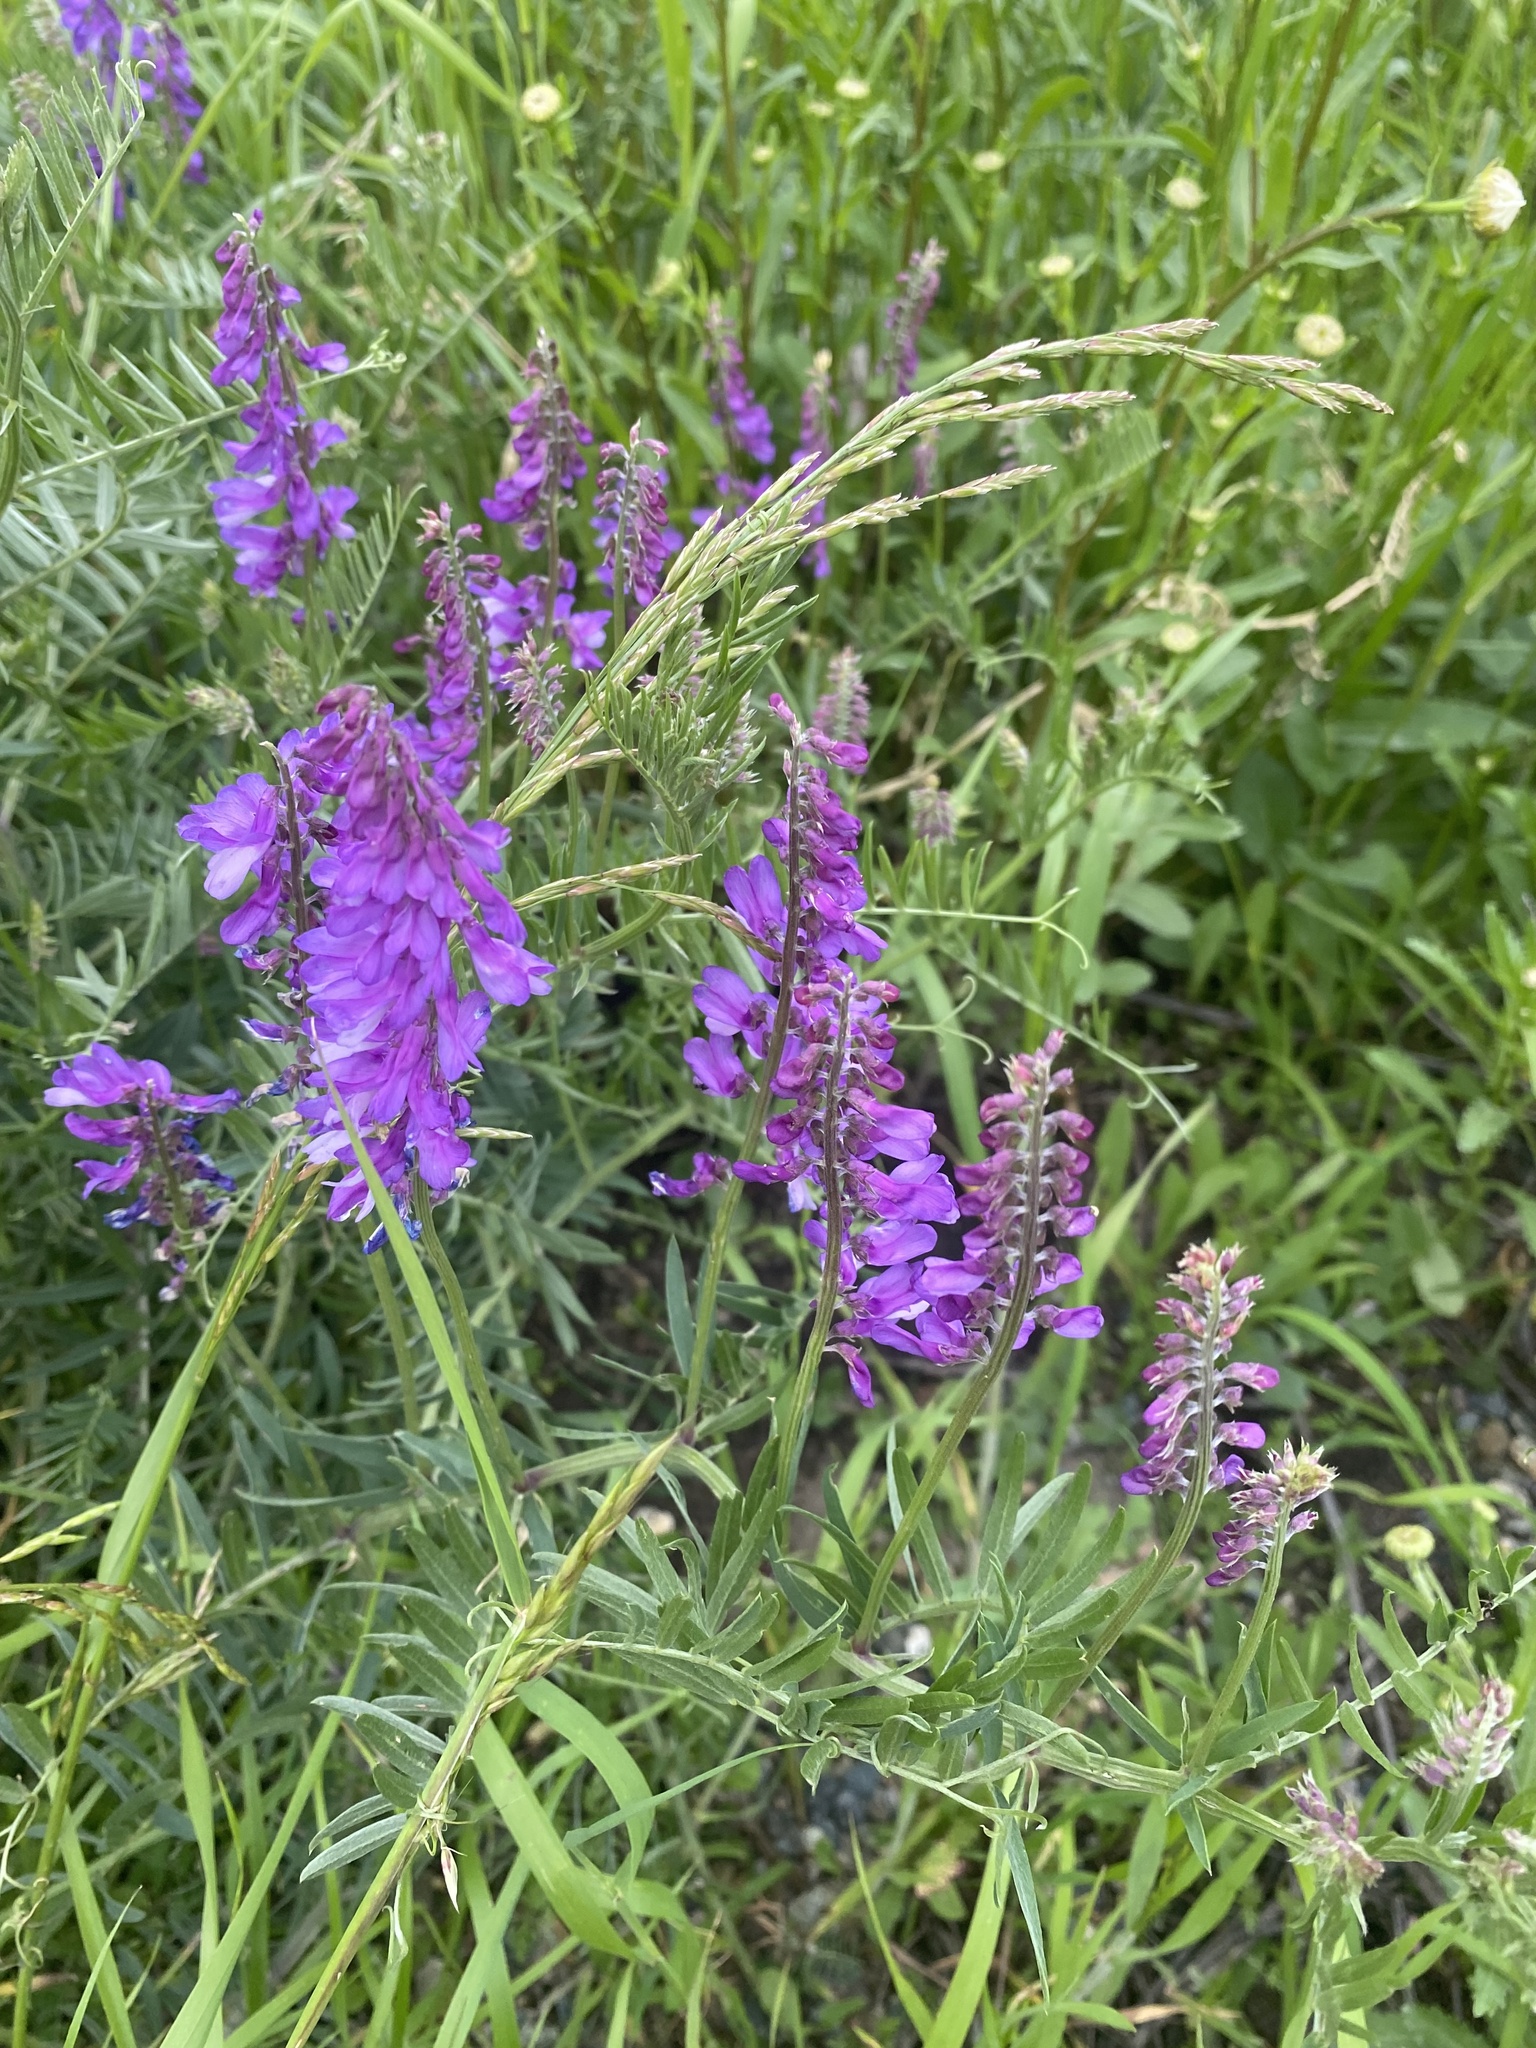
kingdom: Plantae
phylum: Tracheophyta
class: Magnoliopsida
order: Fabales
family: Fabaceae
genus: Vicia
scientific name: Vicia tenuifolia
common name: Fine-leaved vetch
